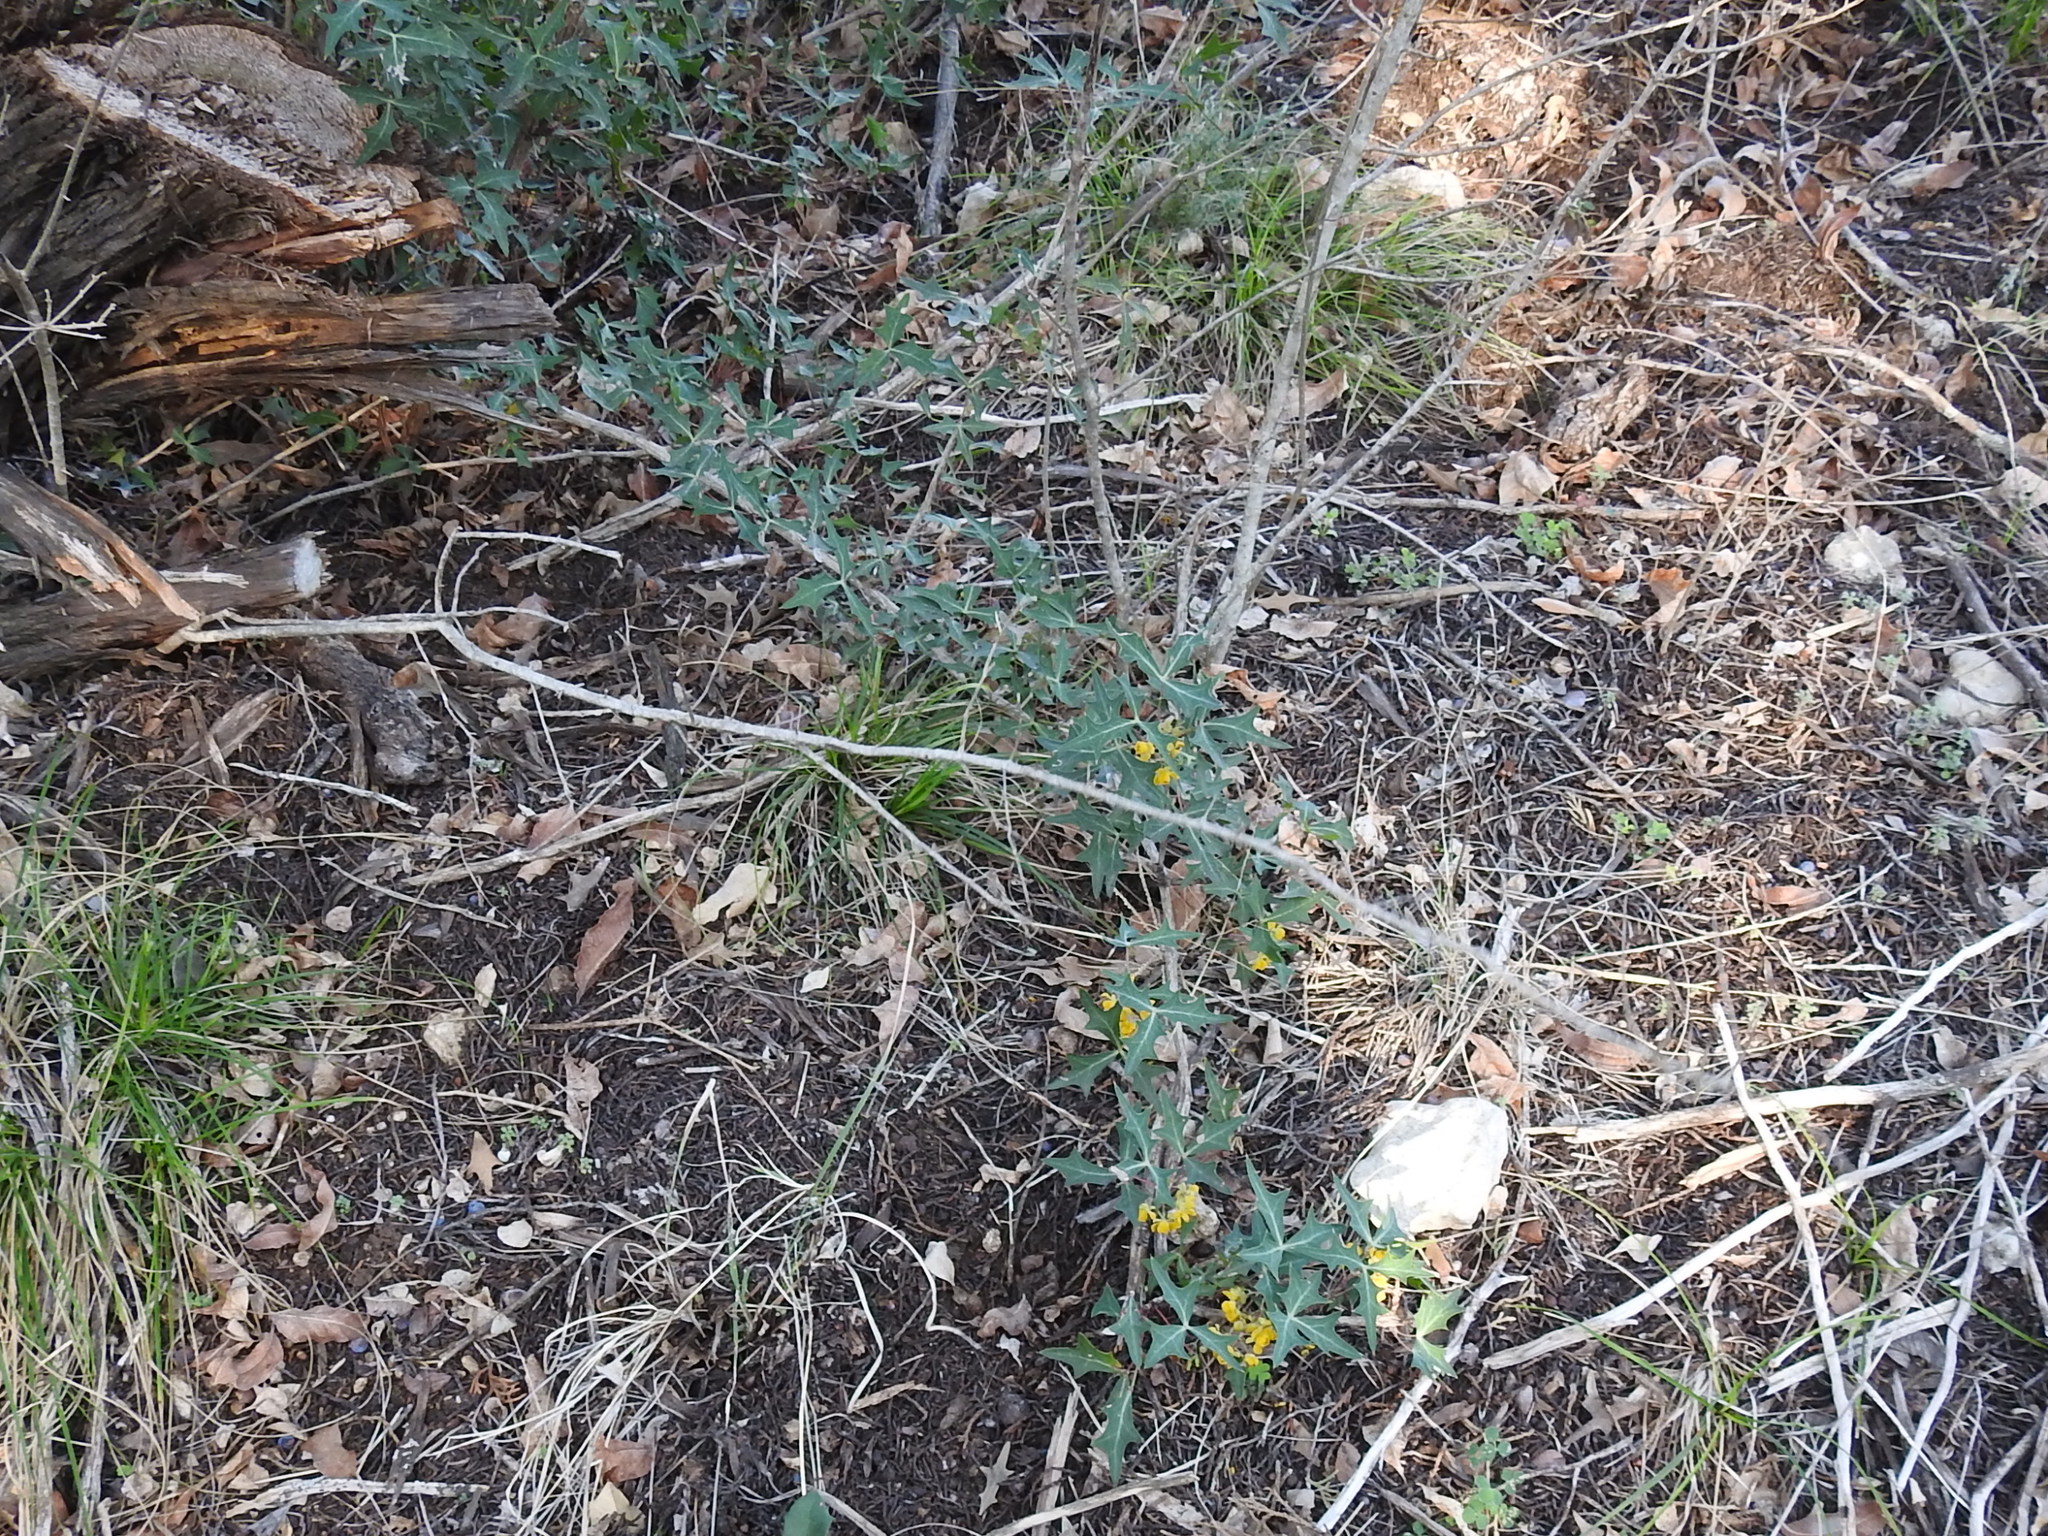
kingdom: Plantae
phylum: Tracheophyta
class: Magnoliopsida
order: Ranunculales
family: Berberidaceae
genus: Alloberberis
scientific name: Alloberberis trifoliolata
